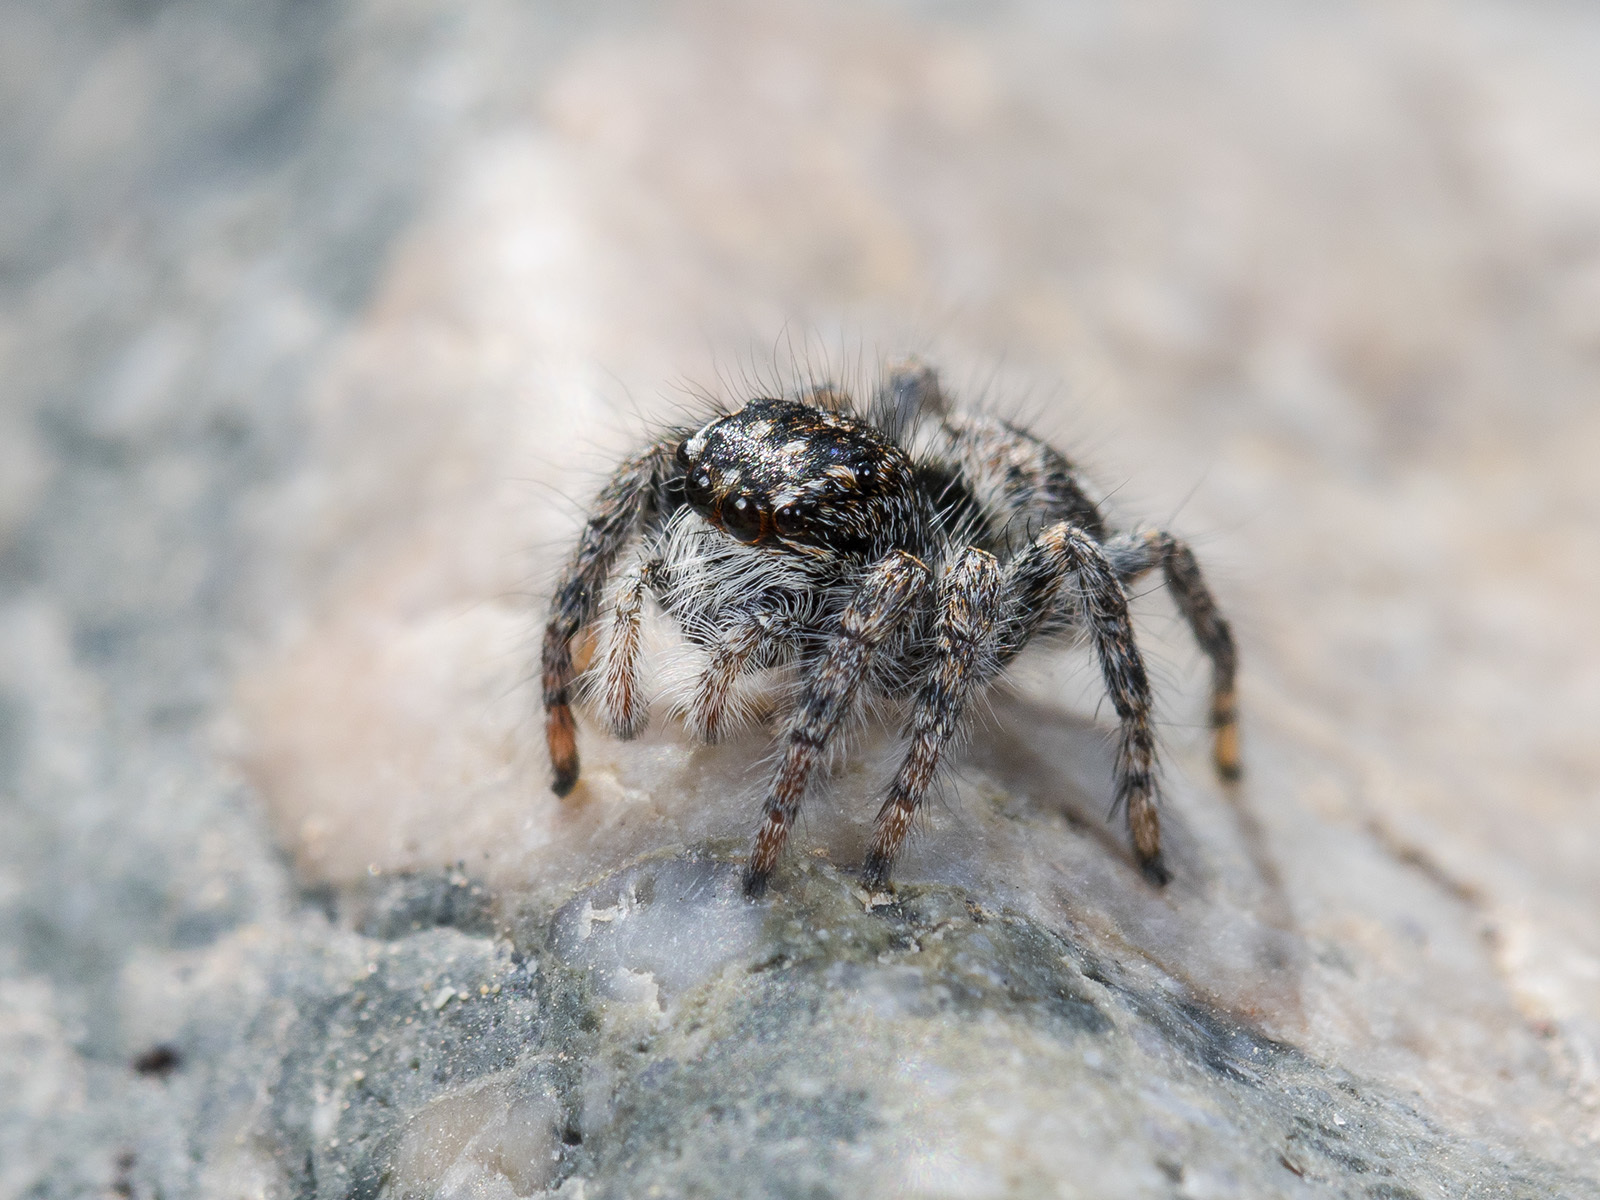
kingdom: Animalia
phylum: Arthropoda
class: Arachnida
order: Araneae
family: Salticidae
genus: Philaeus
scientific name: Philaeus chrysops
